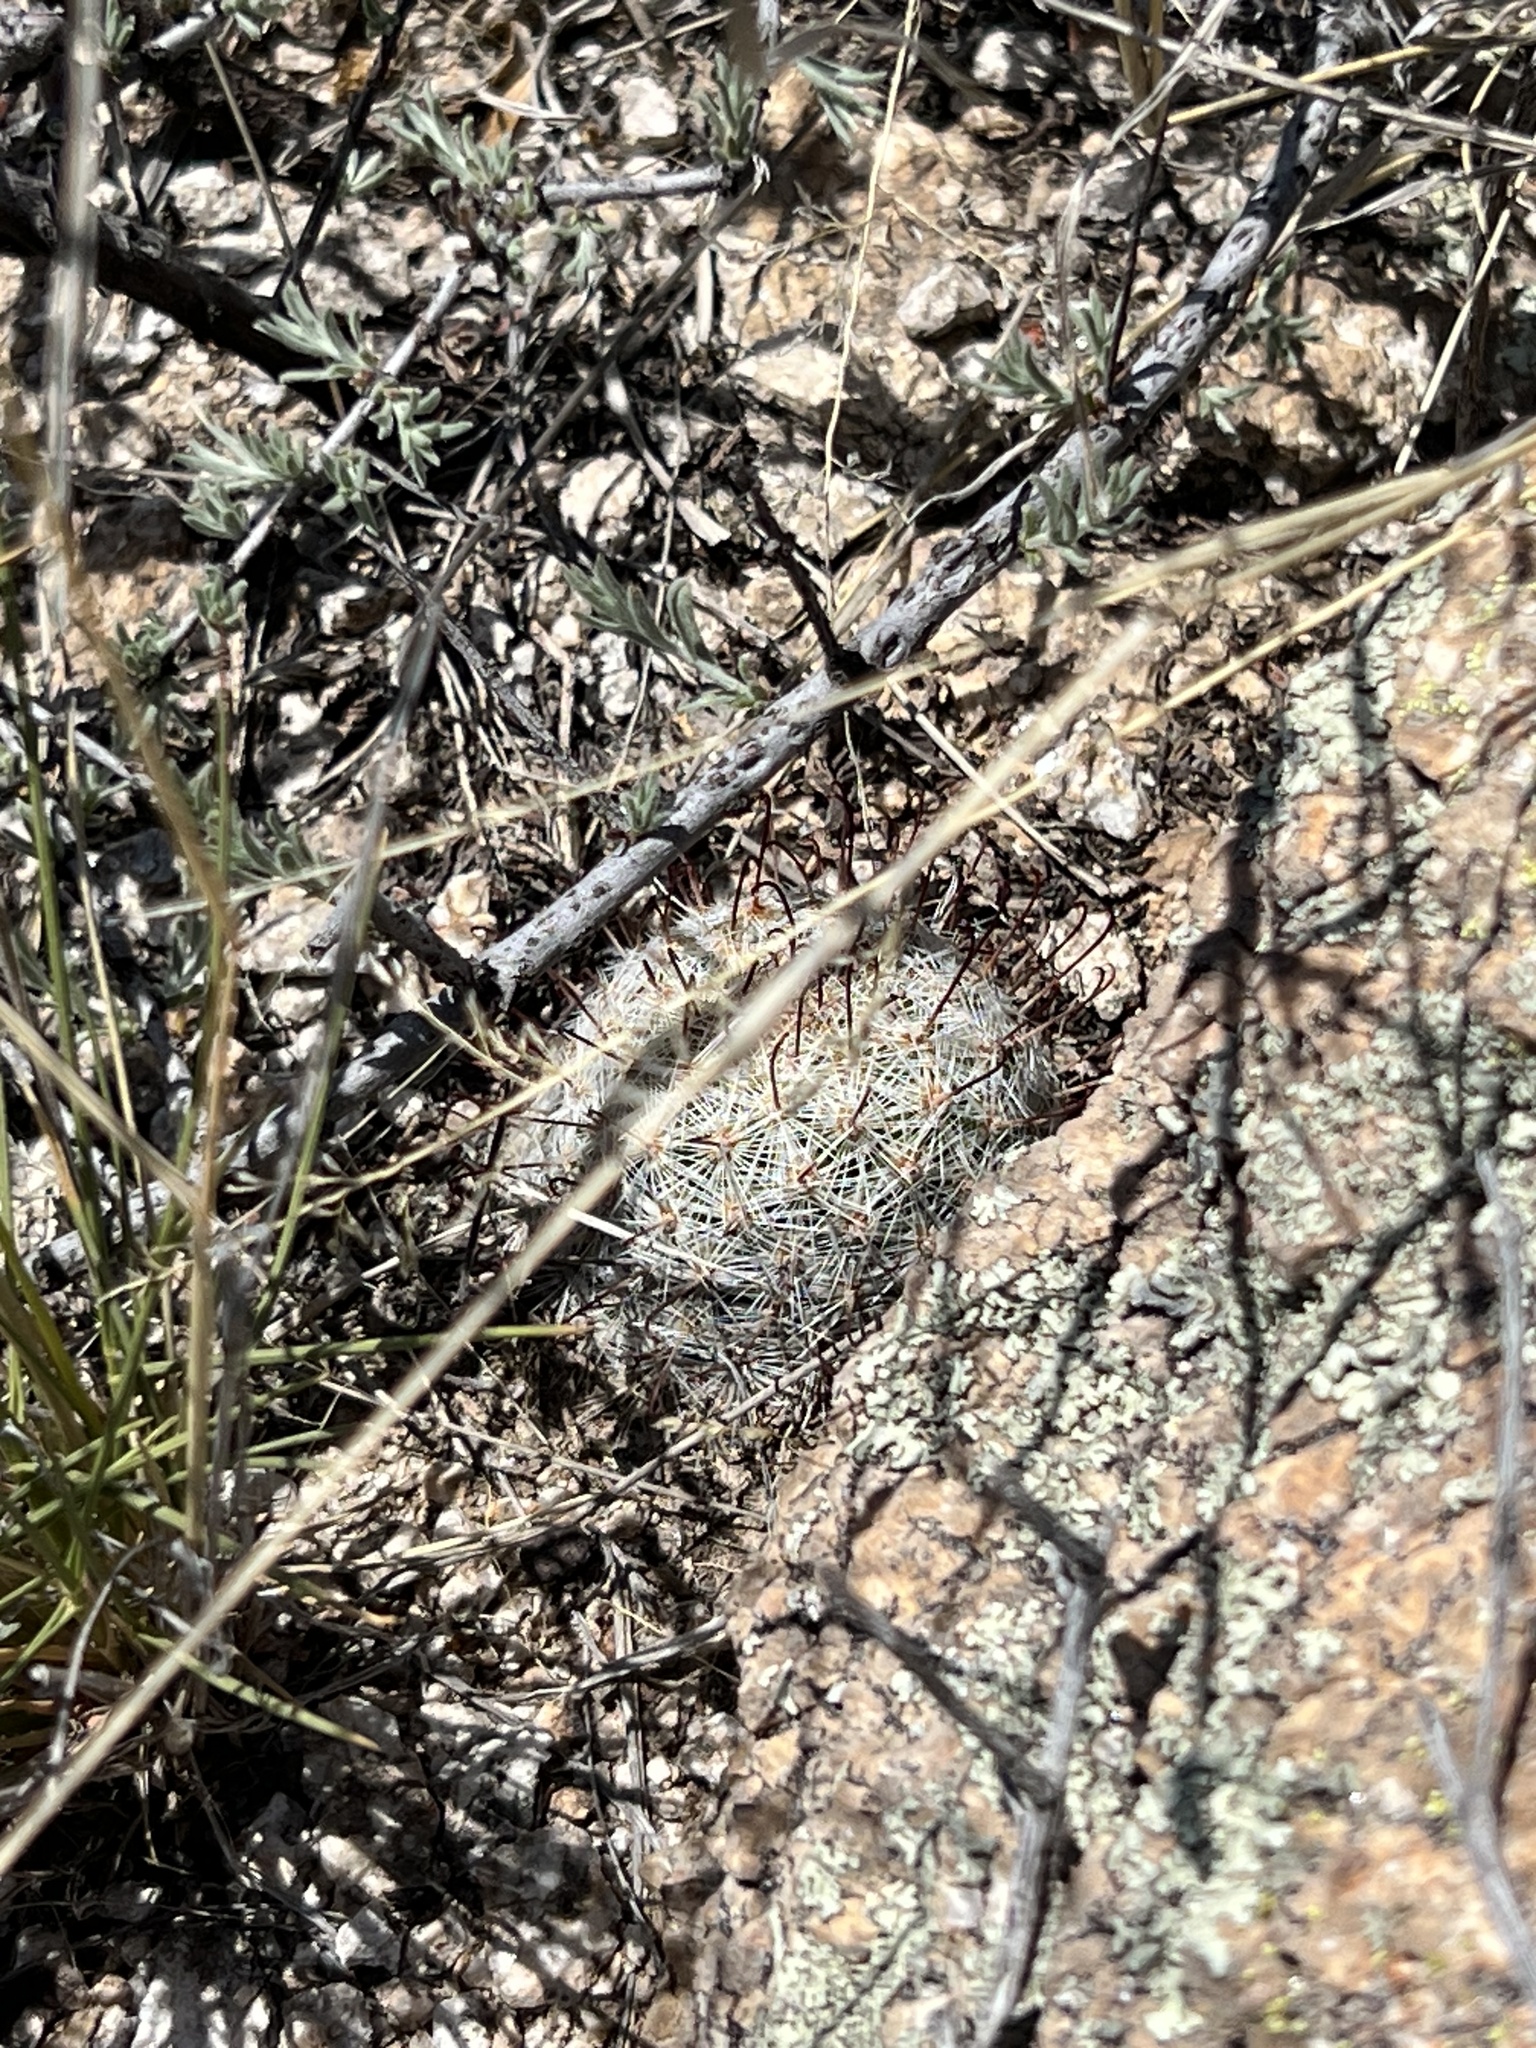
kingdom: Plantae
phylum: Tracheophyta
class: Magnoliopsida
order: Caryophyllales
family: Cactaceae
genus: Cochemiea
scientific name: Cochemiea grahamii
